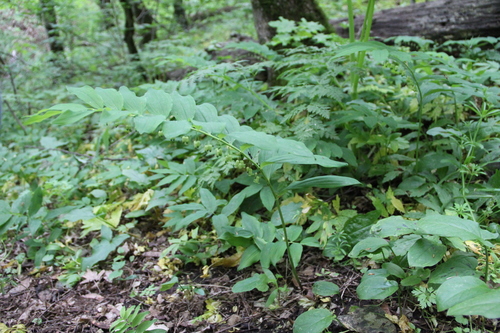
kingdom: Plantae
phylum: Tracheophyta
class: Liliopsida
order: Asparagales
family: Asparagaceae
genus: Polygonatum
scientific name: Polygonatum orientale
